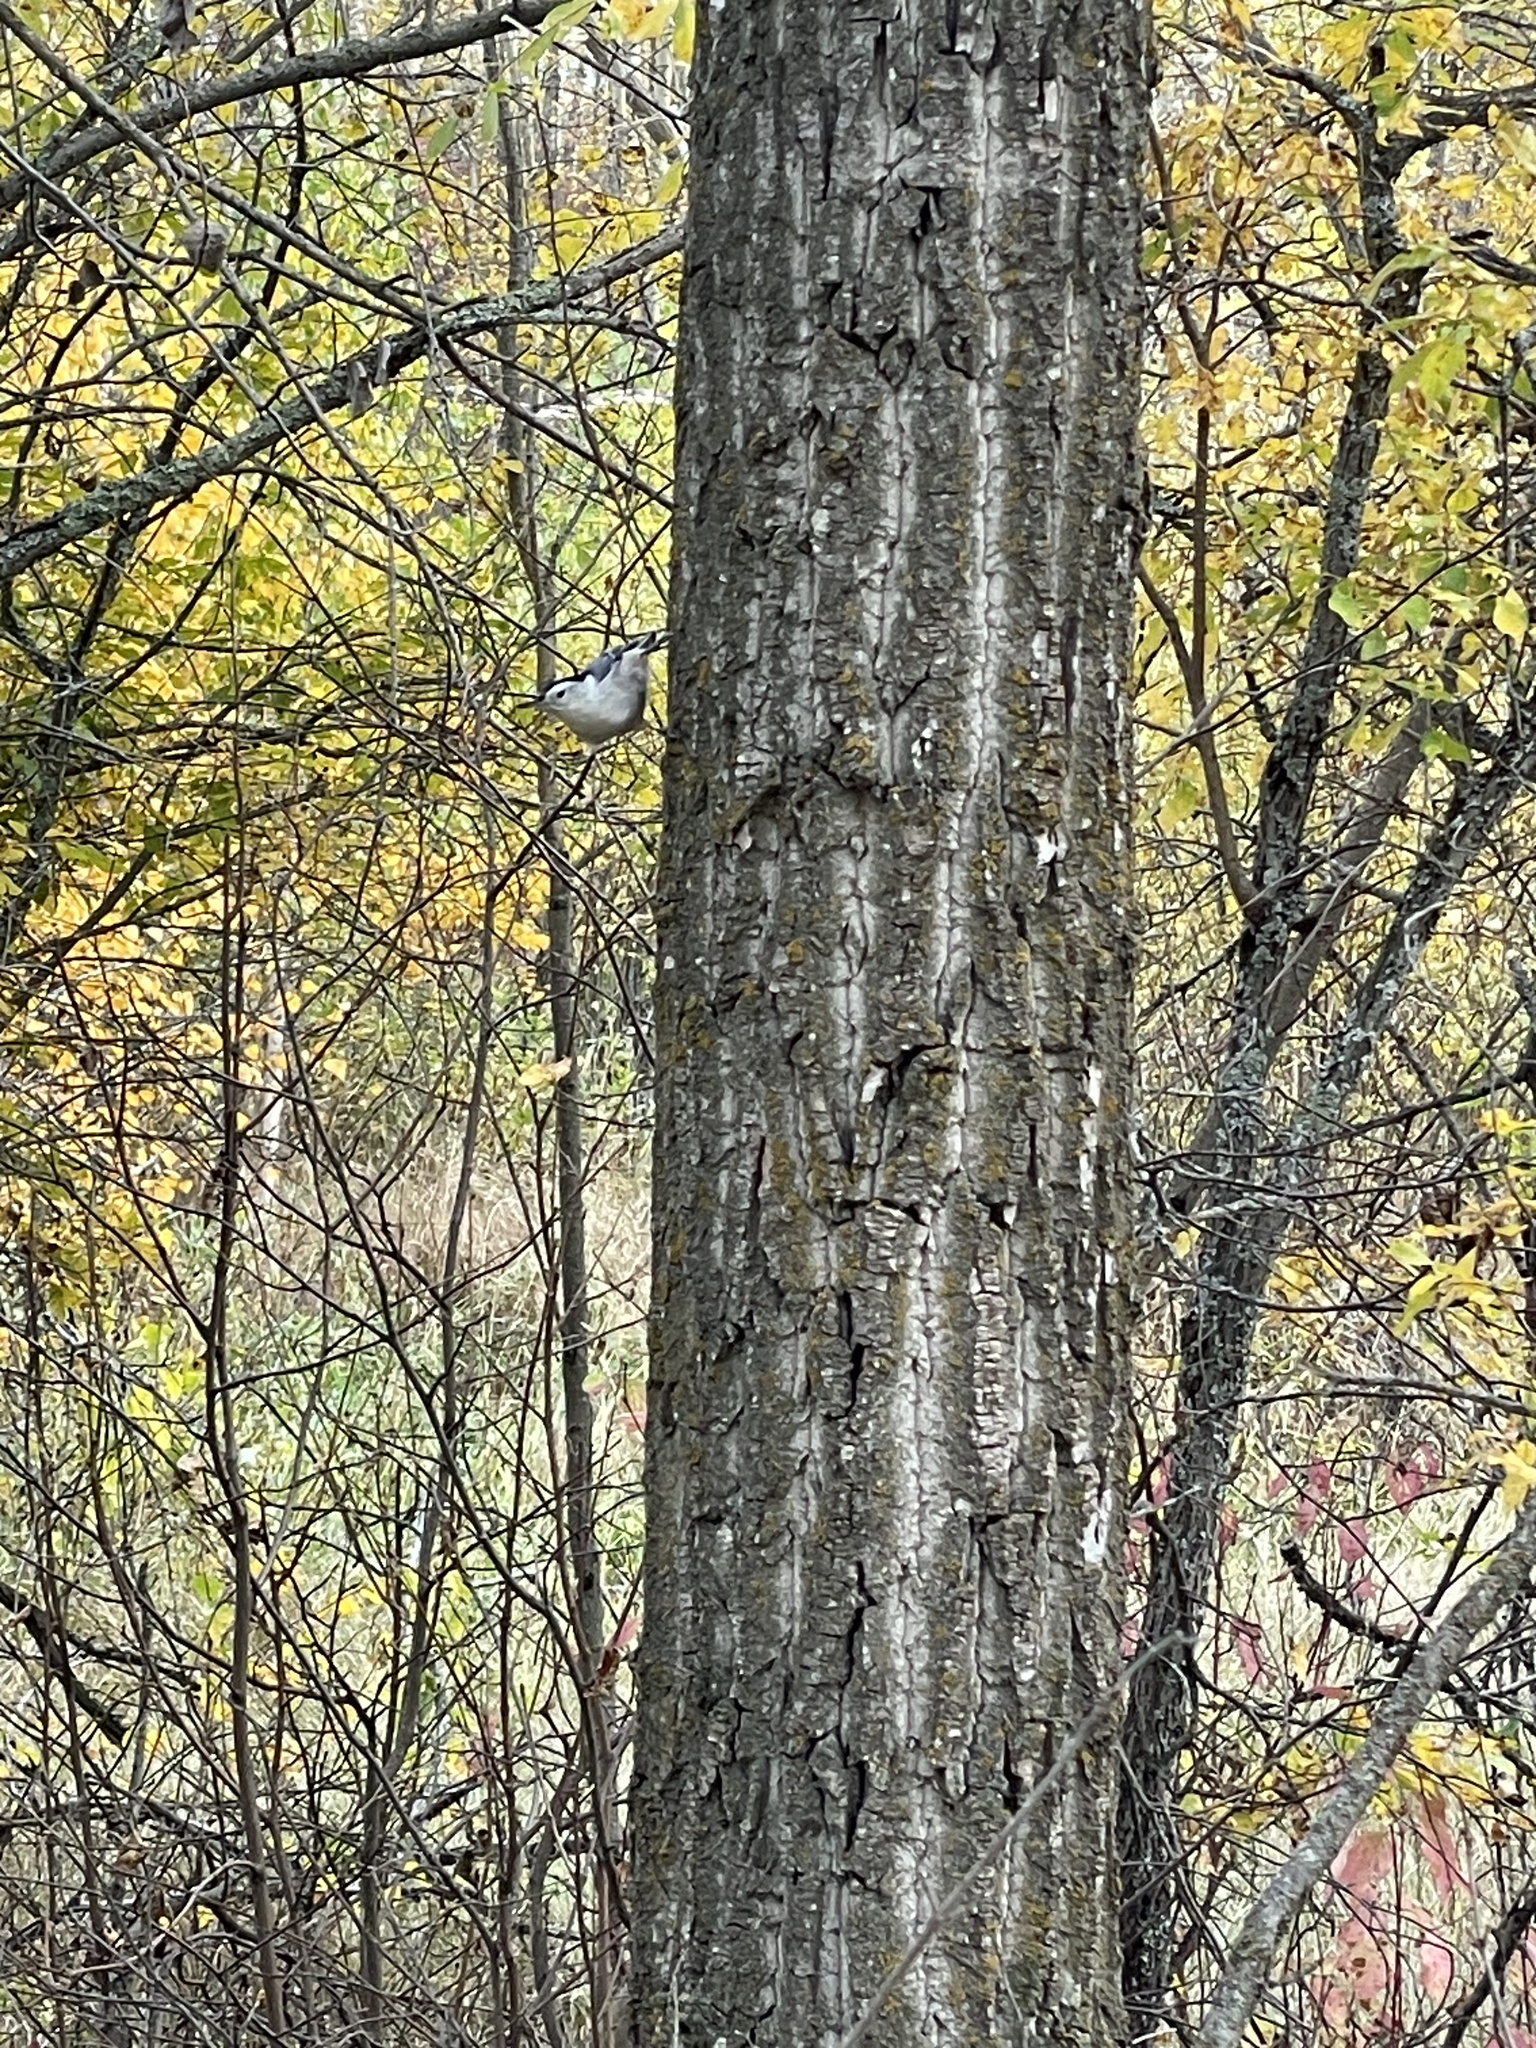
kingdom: Animalia
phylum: Chordata
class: Aves
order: Passeriformes
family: Sittidae
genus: Sitta
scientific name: Sitta carolinensis
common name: White-breasted nuthatch
